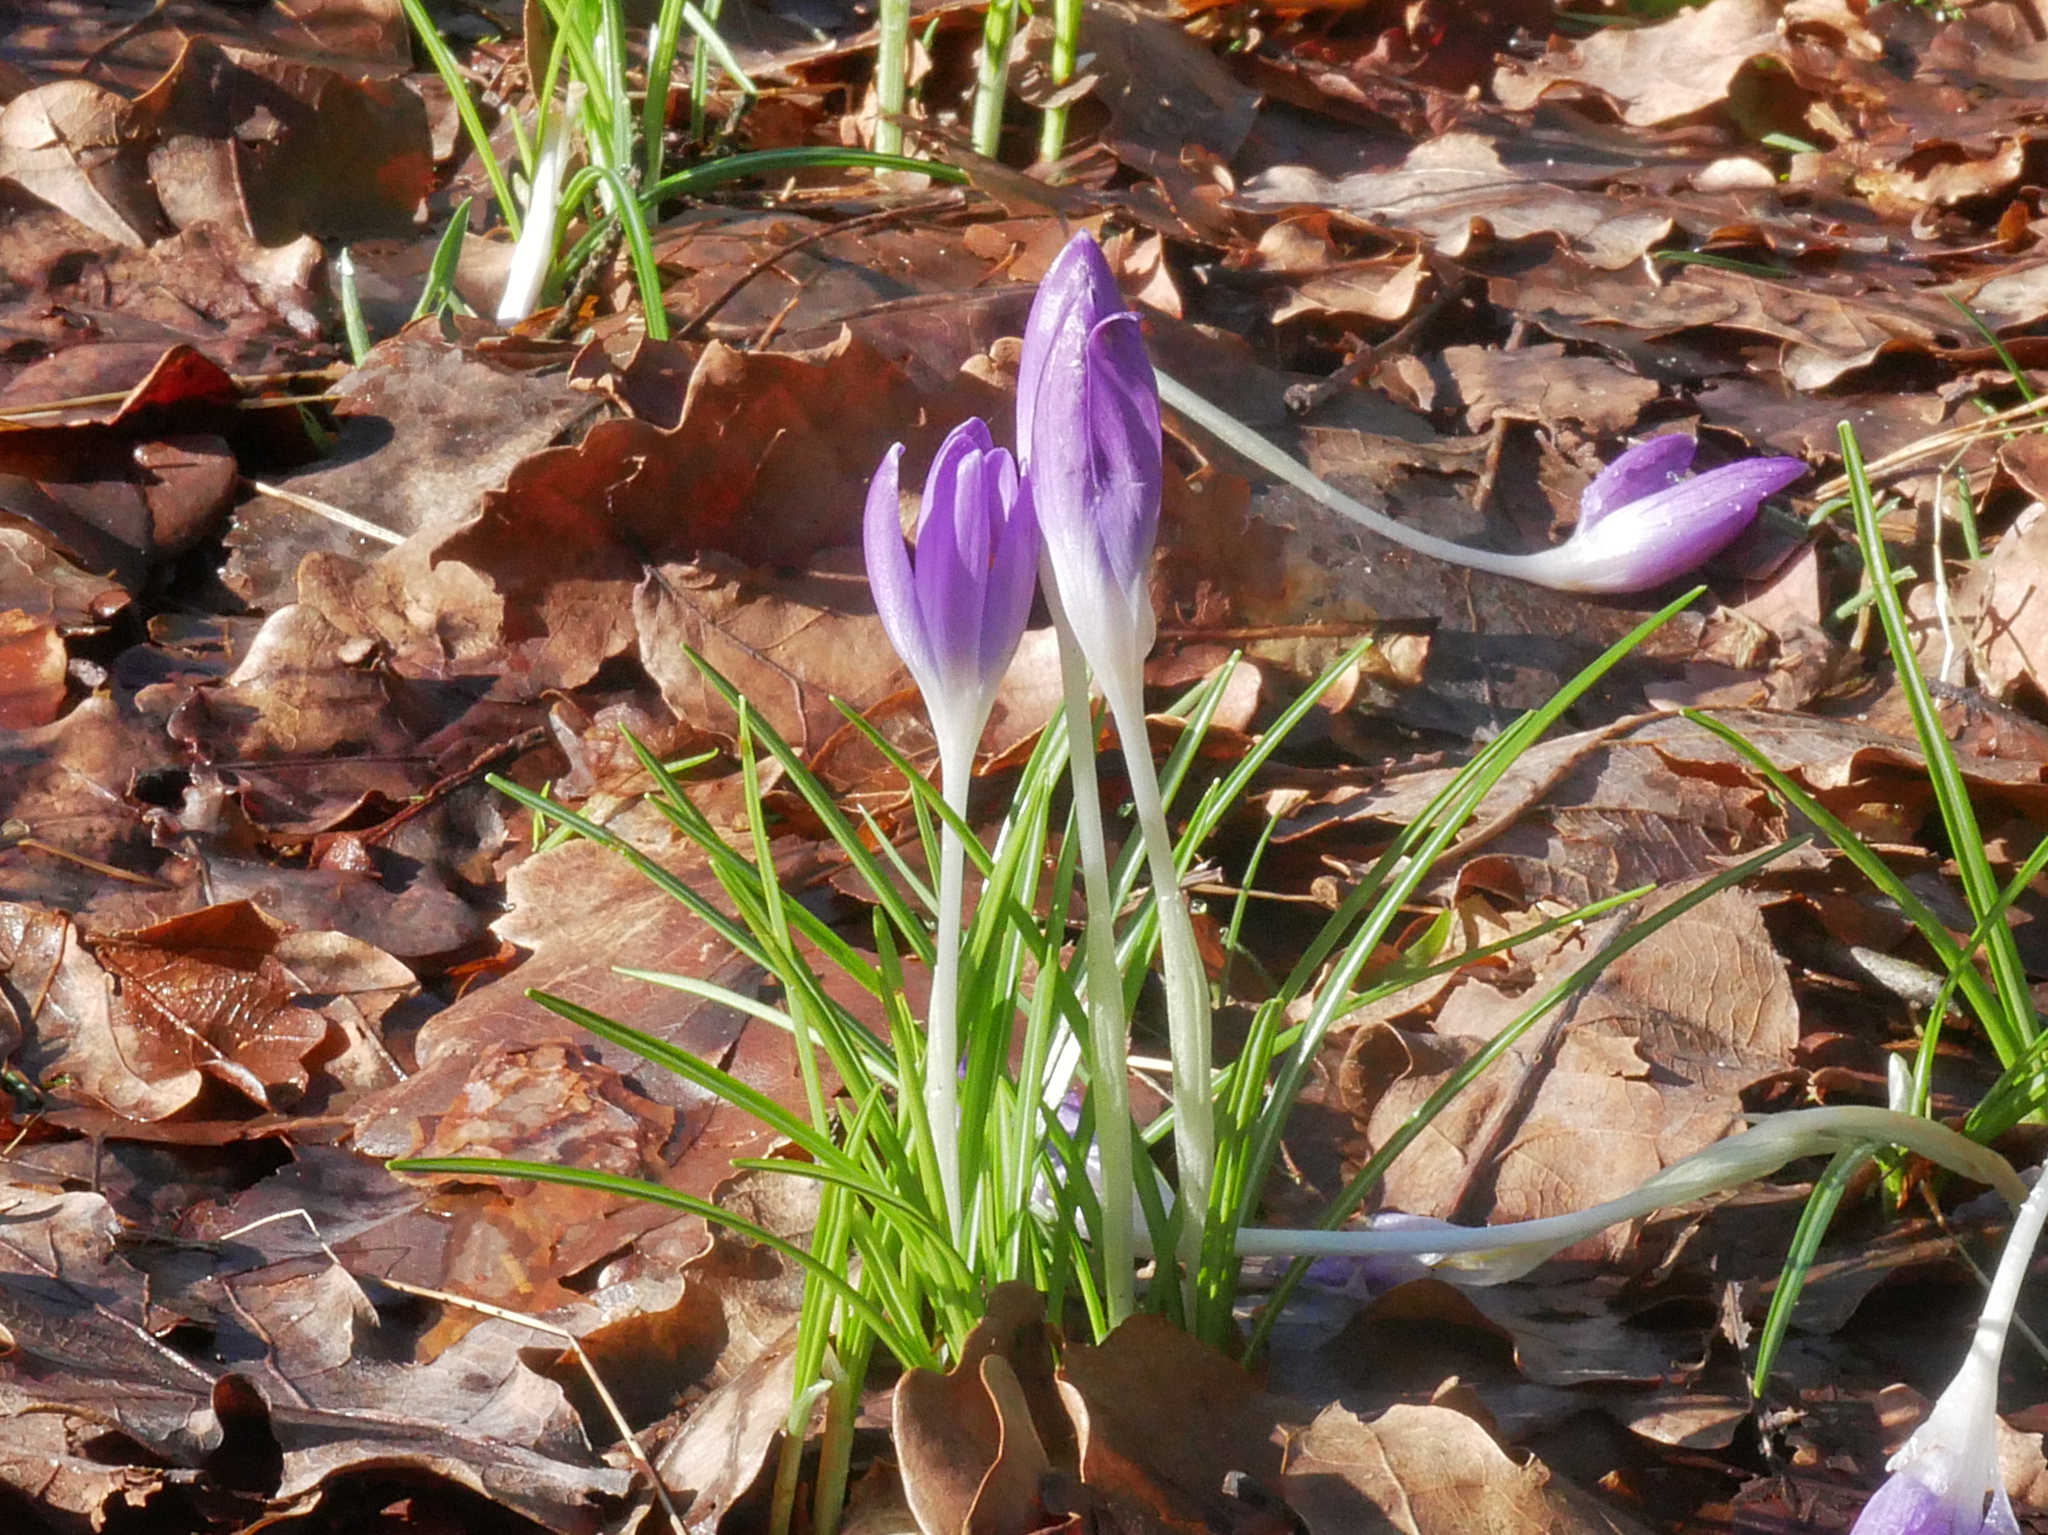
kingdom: Plantae
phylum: Tracheophyta
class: Liliopsida
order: Asparagales
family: Iridaceae
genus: Crocus
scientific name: Crocus tommasinianus
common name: Early crocus
